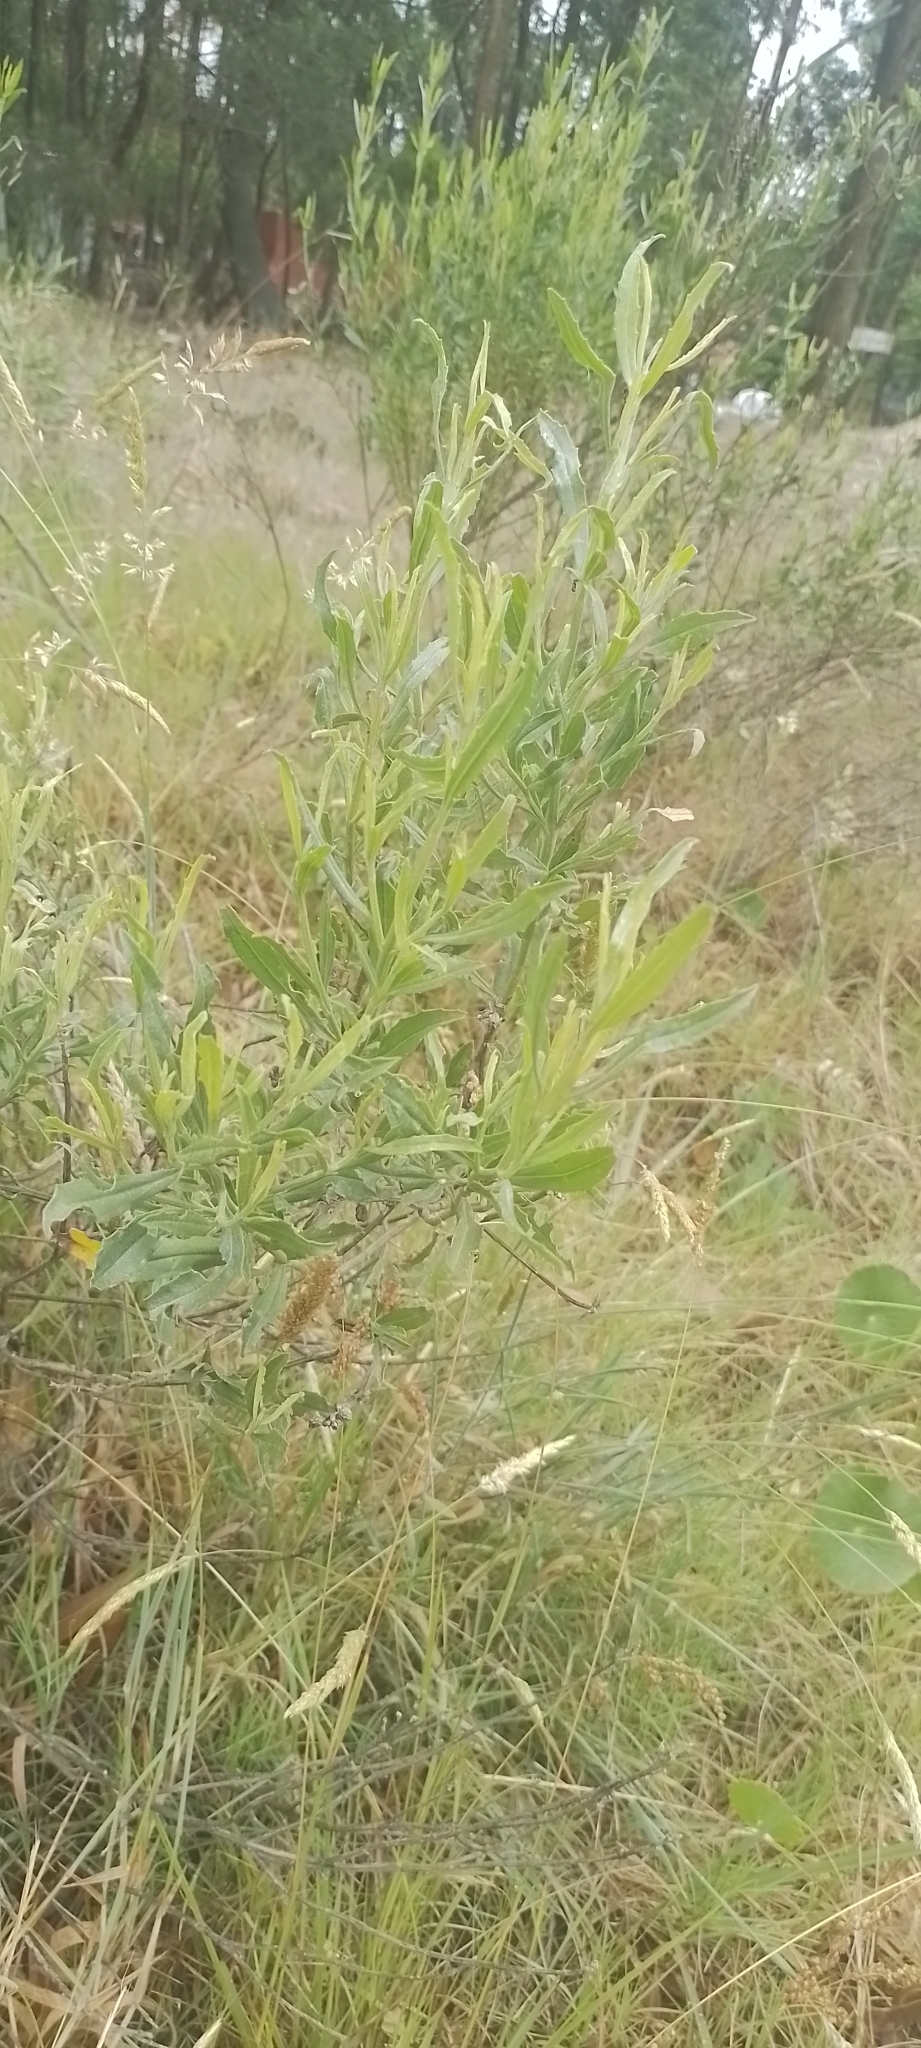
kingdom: Plantae
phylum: Tracheophyta
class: Magnoliopsida
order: Asterales
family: Asteraceae
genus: Baccharis
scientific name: Baccharis spicata
